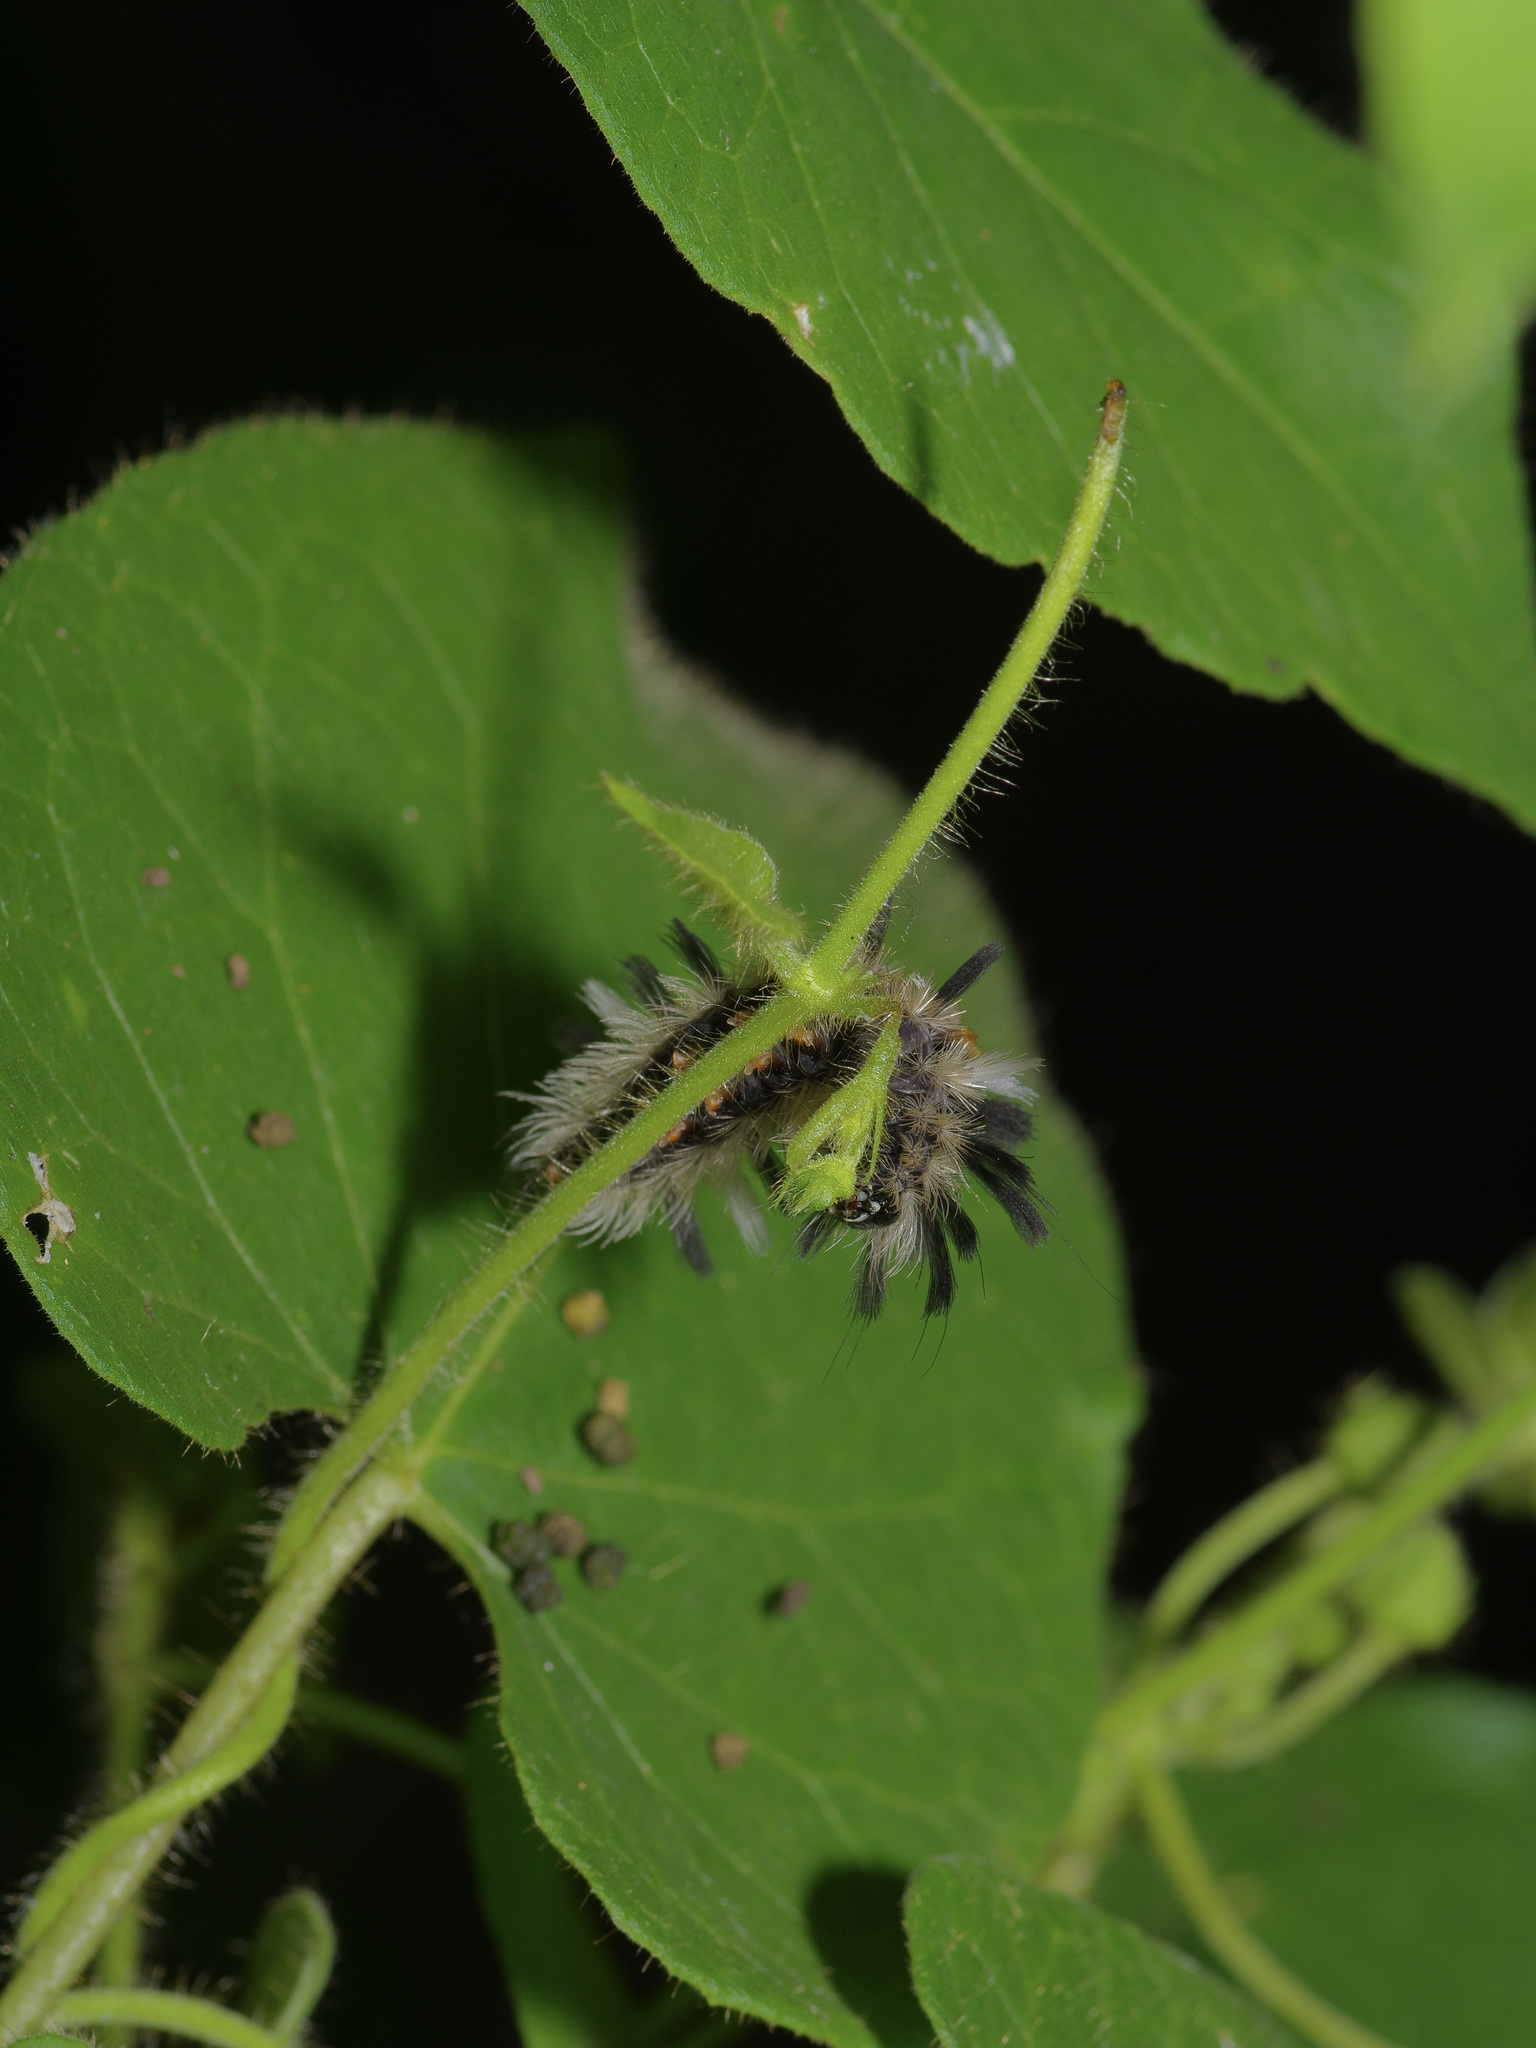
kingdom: Animalia
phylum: Arthropoda
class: Insecta
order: Lepidoptera
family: Erebidae
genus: Euchaetes
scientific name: Euchaetes egle
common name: Milkweed tussock moth
